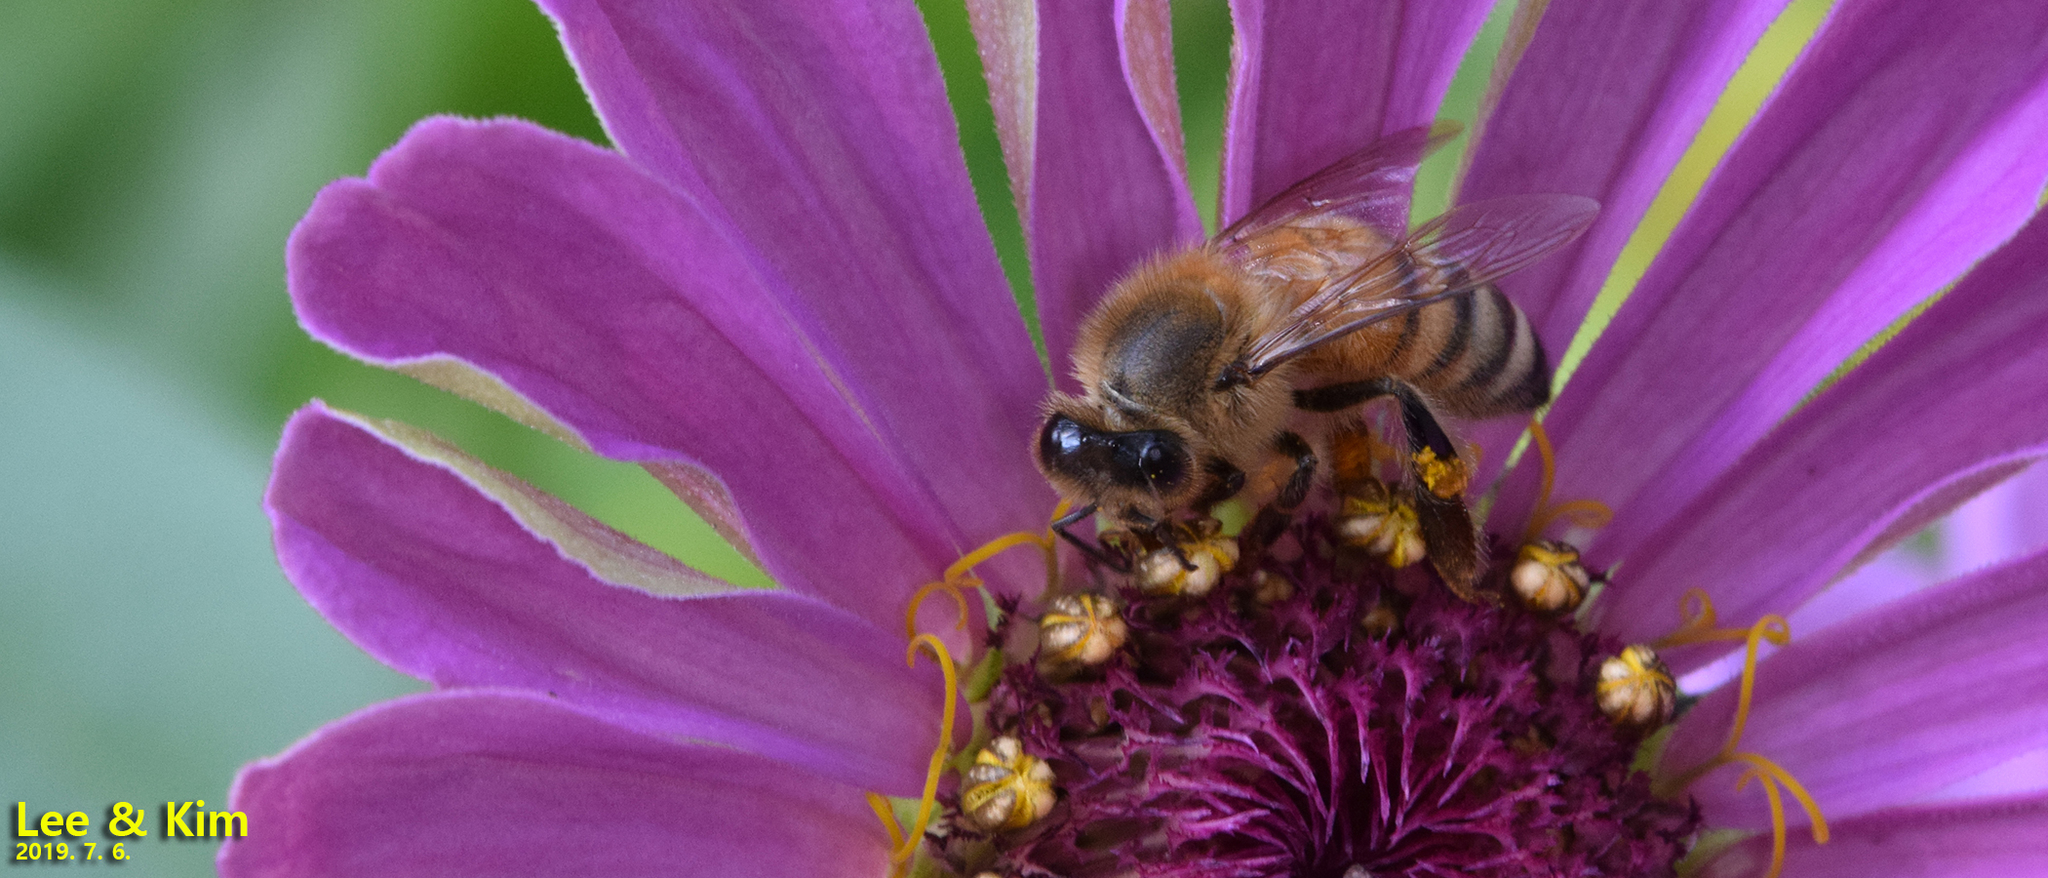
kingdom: Animalia
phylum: Arthropoda
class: Insecta
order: Hymenoptera
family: Apidae
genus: Apis
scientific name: Apis mellifera
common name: Honey bee
